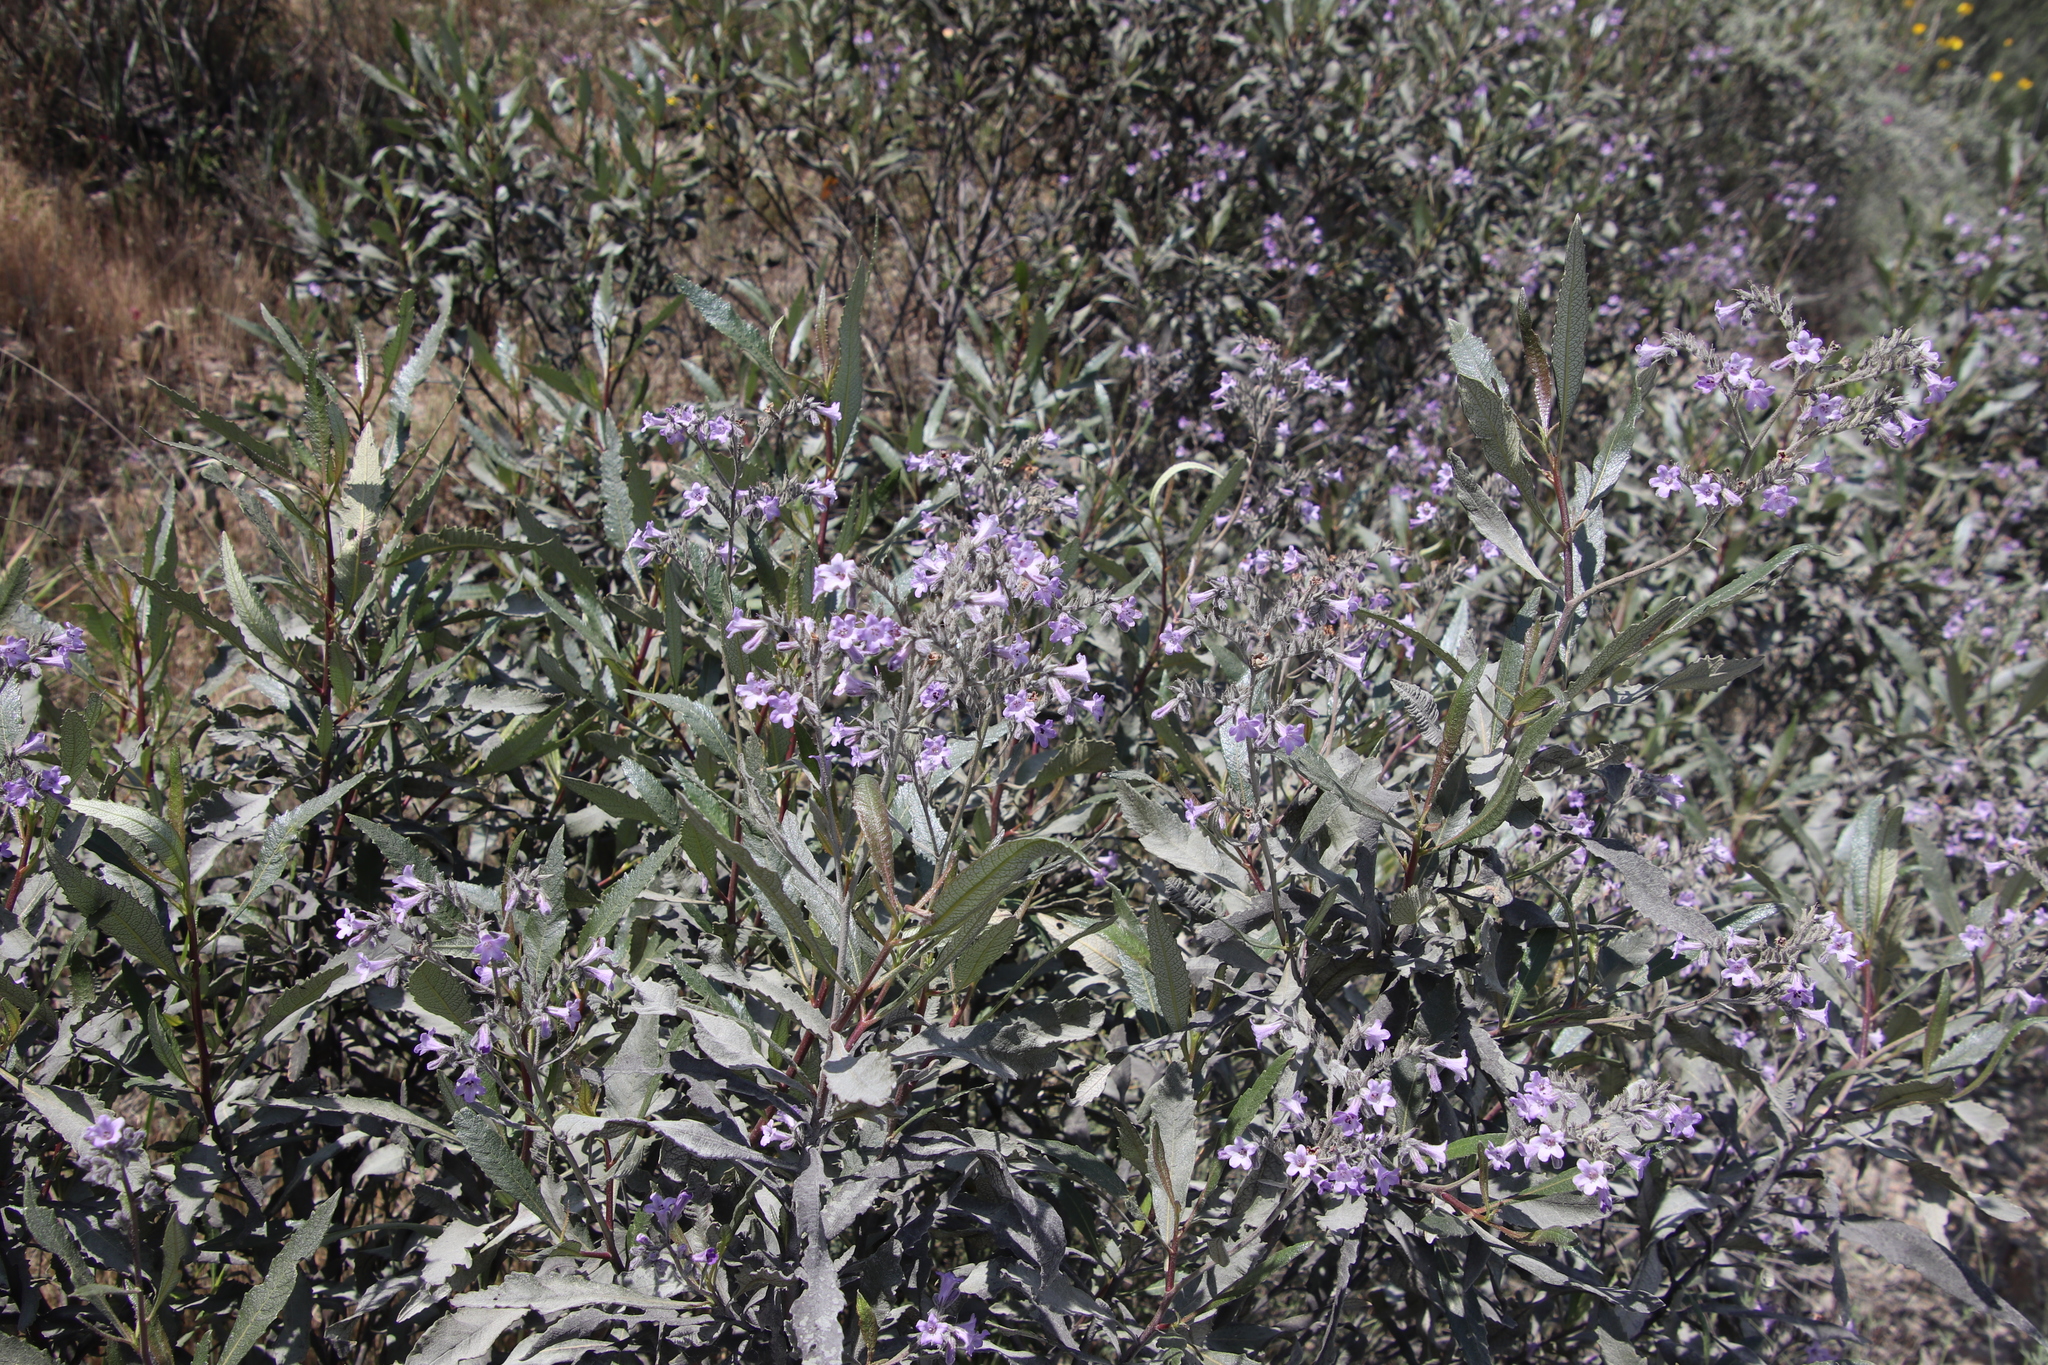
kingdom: Plantae
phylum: Tracheophyta
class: Magnoliopsida
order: Boraginales
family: Namaceae
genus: Eriodictyon
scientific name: Eriodictyon trichocalyx
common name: Hairy yerba-santa
